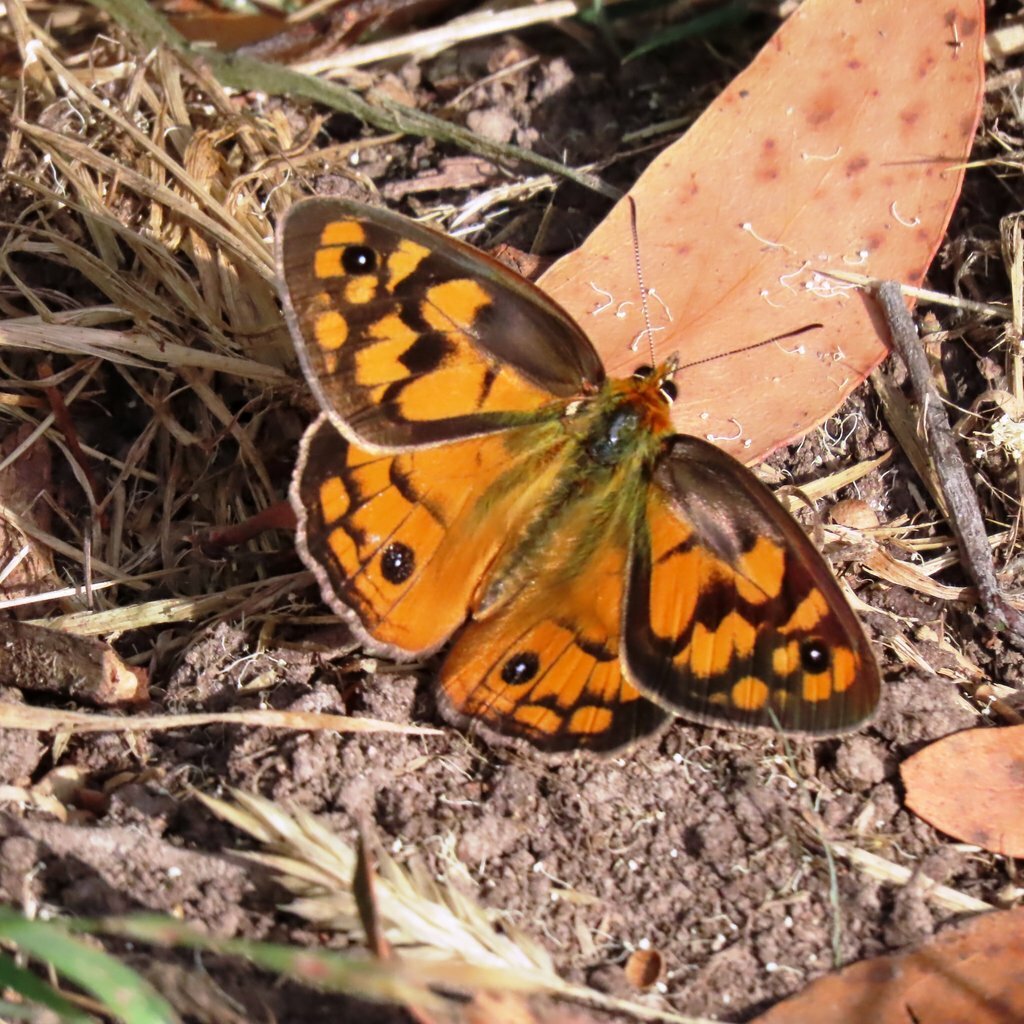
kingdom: Animalia
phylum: Arthropoda
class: Insecta
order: Lepidoptera
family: Nymphalidae
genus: Heteronympha
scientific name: Heteronympha penelope
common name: Shouldered brown
